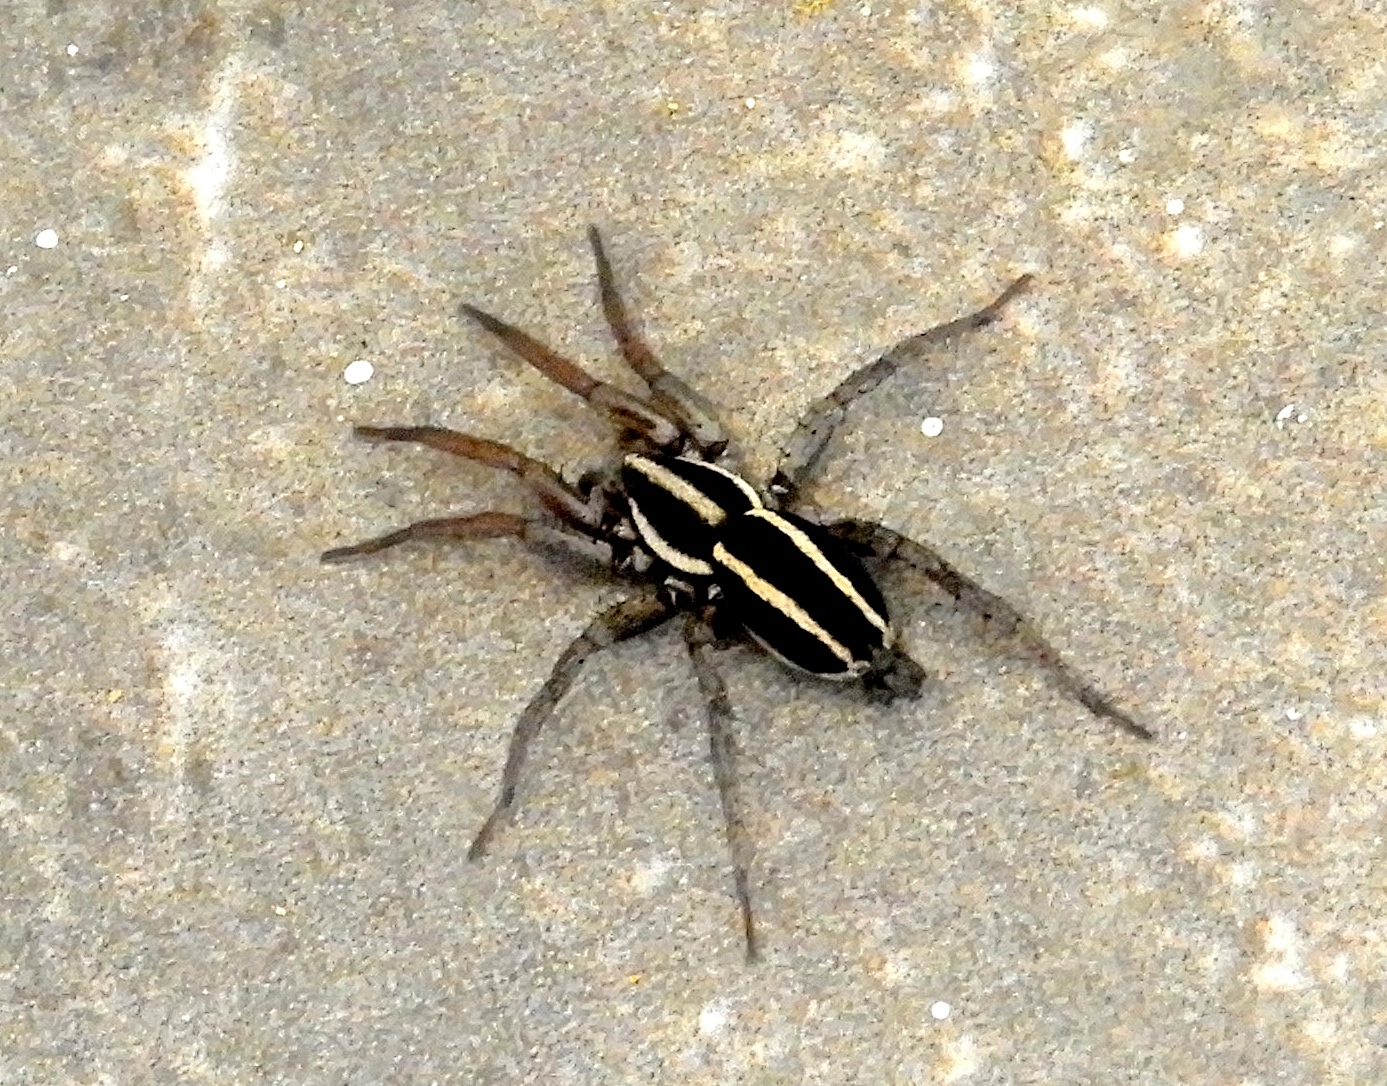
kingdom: Animalia
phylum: Arthropoda
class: Arachnida
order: Araneae
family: Gnaphosidae
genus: Cesonia
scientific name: Cesonia
